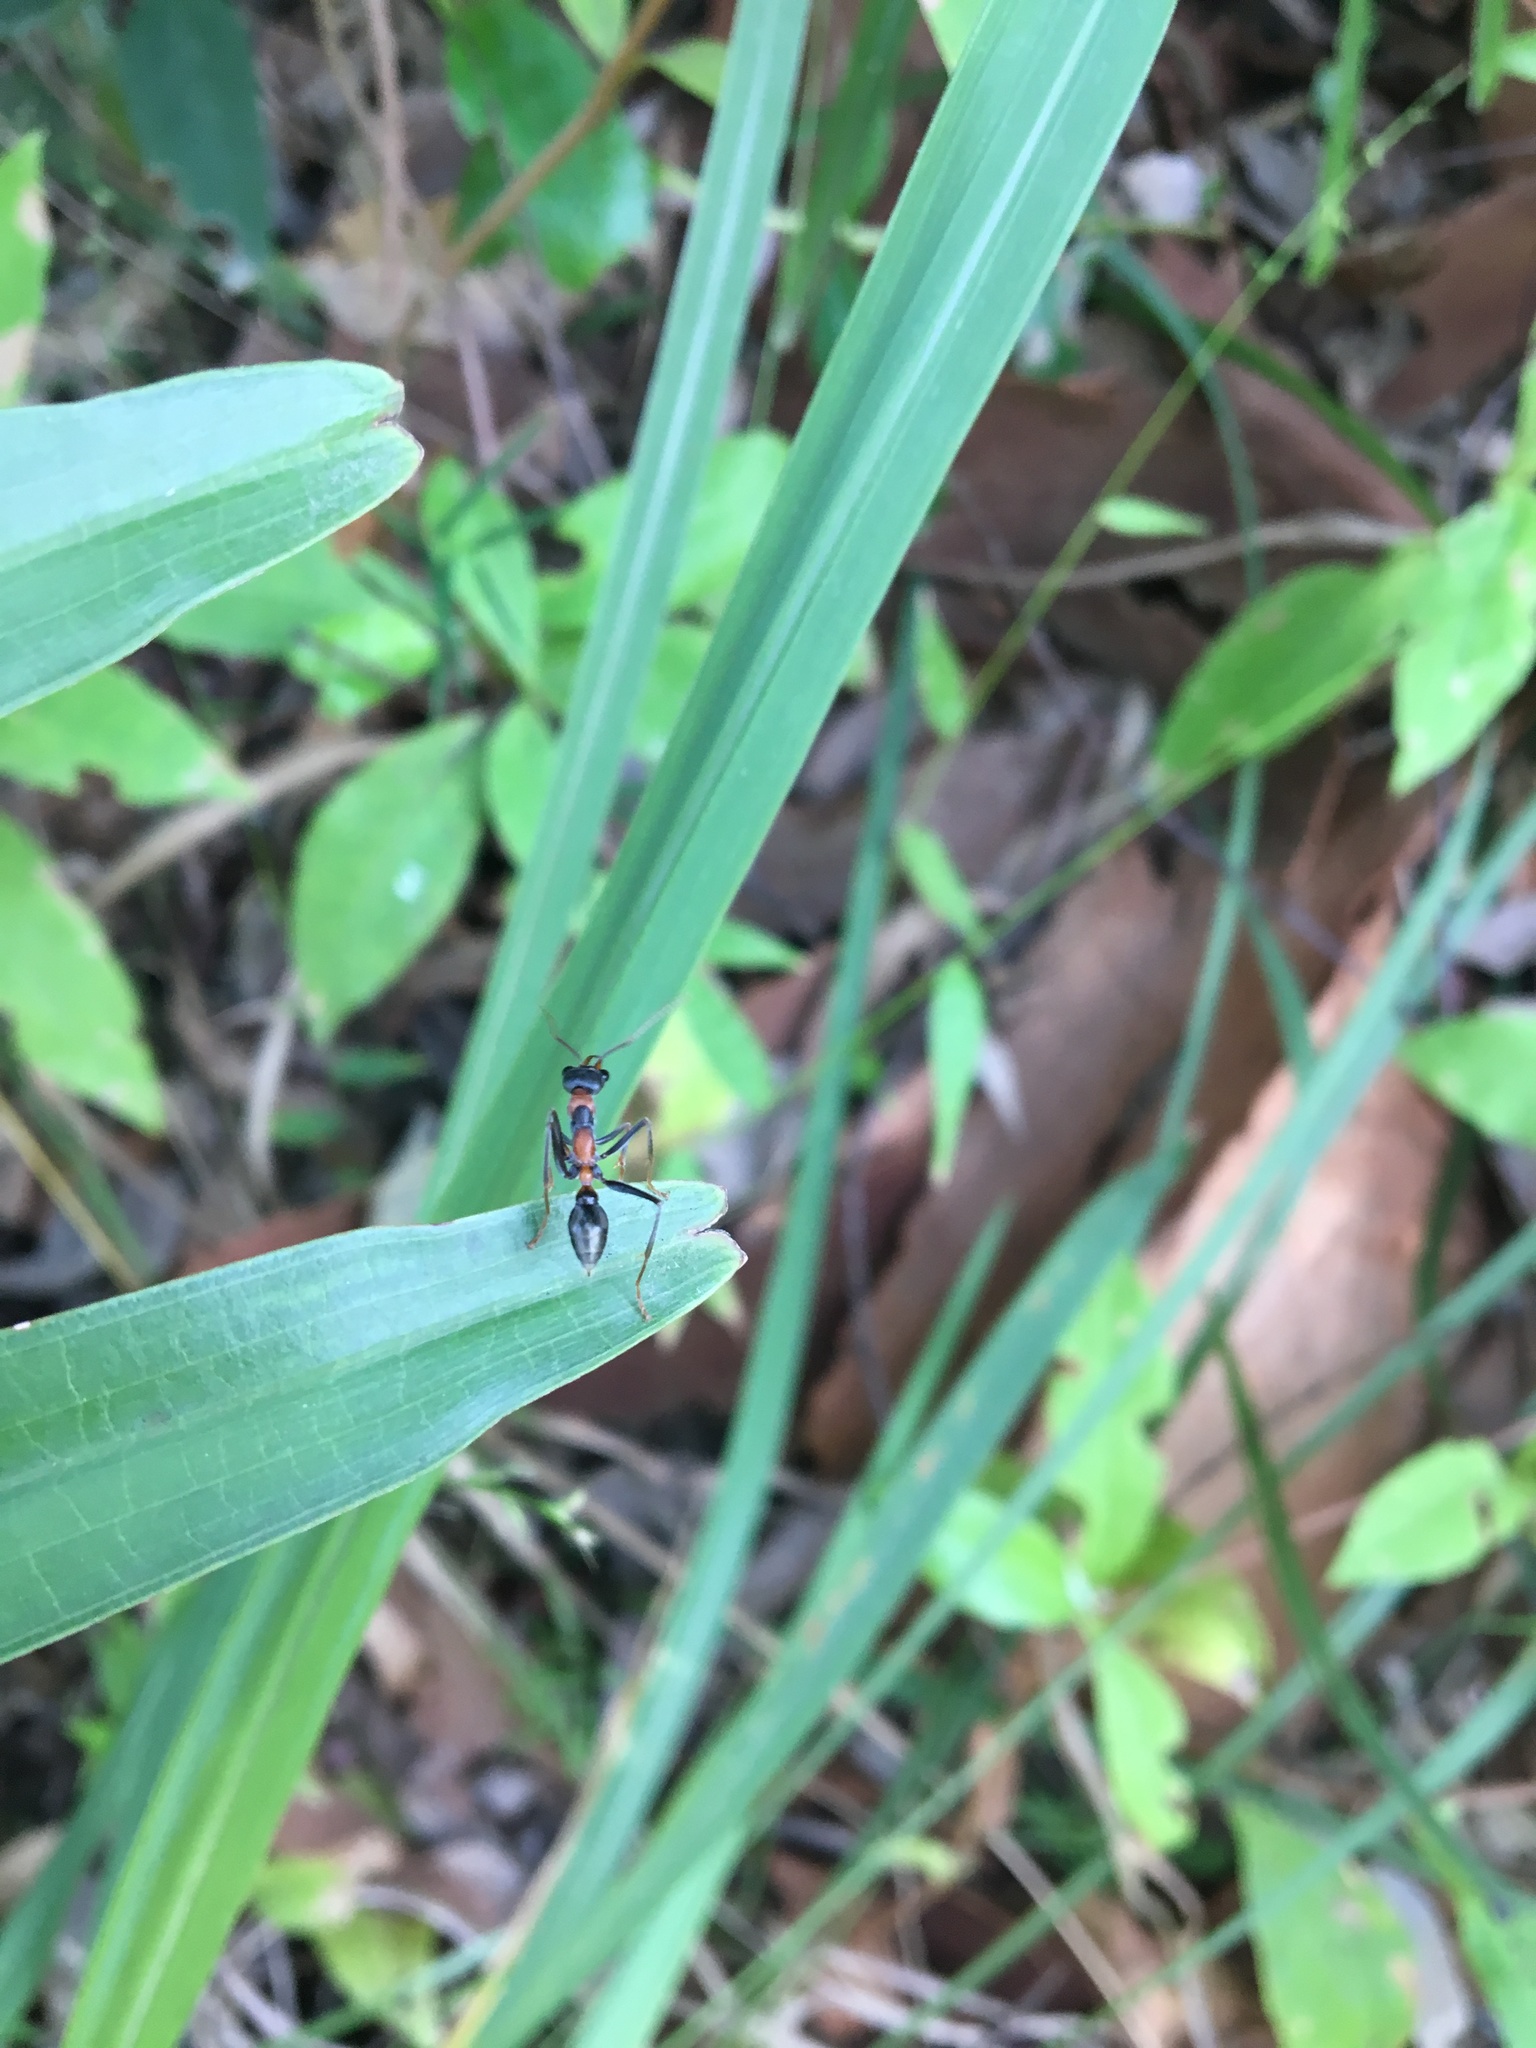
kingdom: Animalia
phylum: Arthropoda
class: Insecta
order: Hymenoptera
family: Formicidae
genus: Myrmecia
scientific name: Myrmecia nigrocincta
